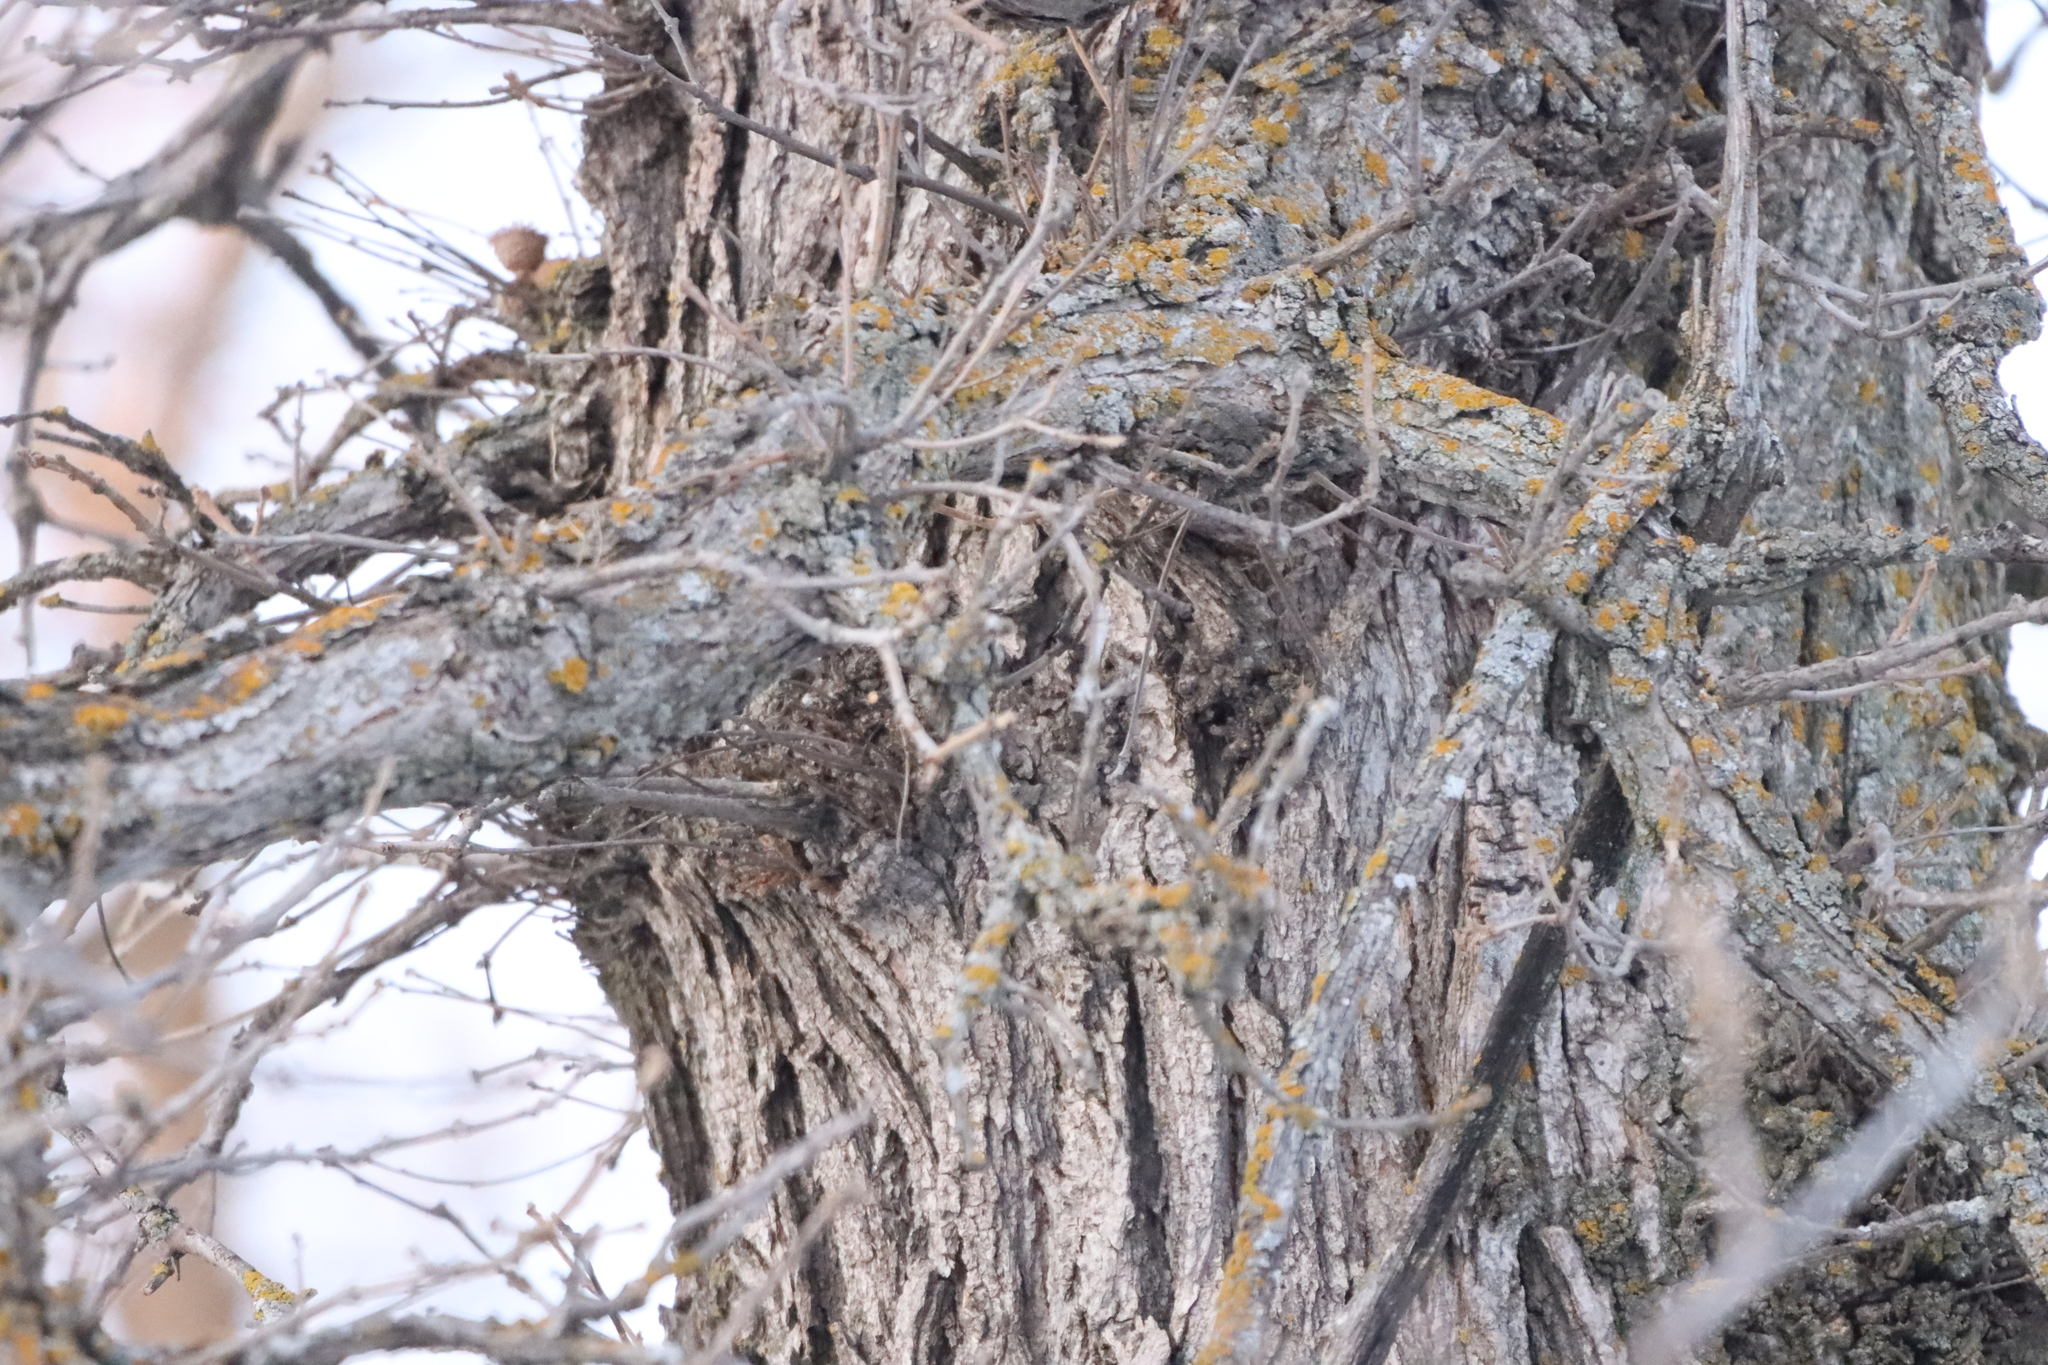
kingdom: Plantae
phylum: Tracheophyta
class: Magnoliopsida
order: Fagales
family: Fagaceae
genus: Quercus
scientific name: Quercus macrocarpa
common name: Bur oak
